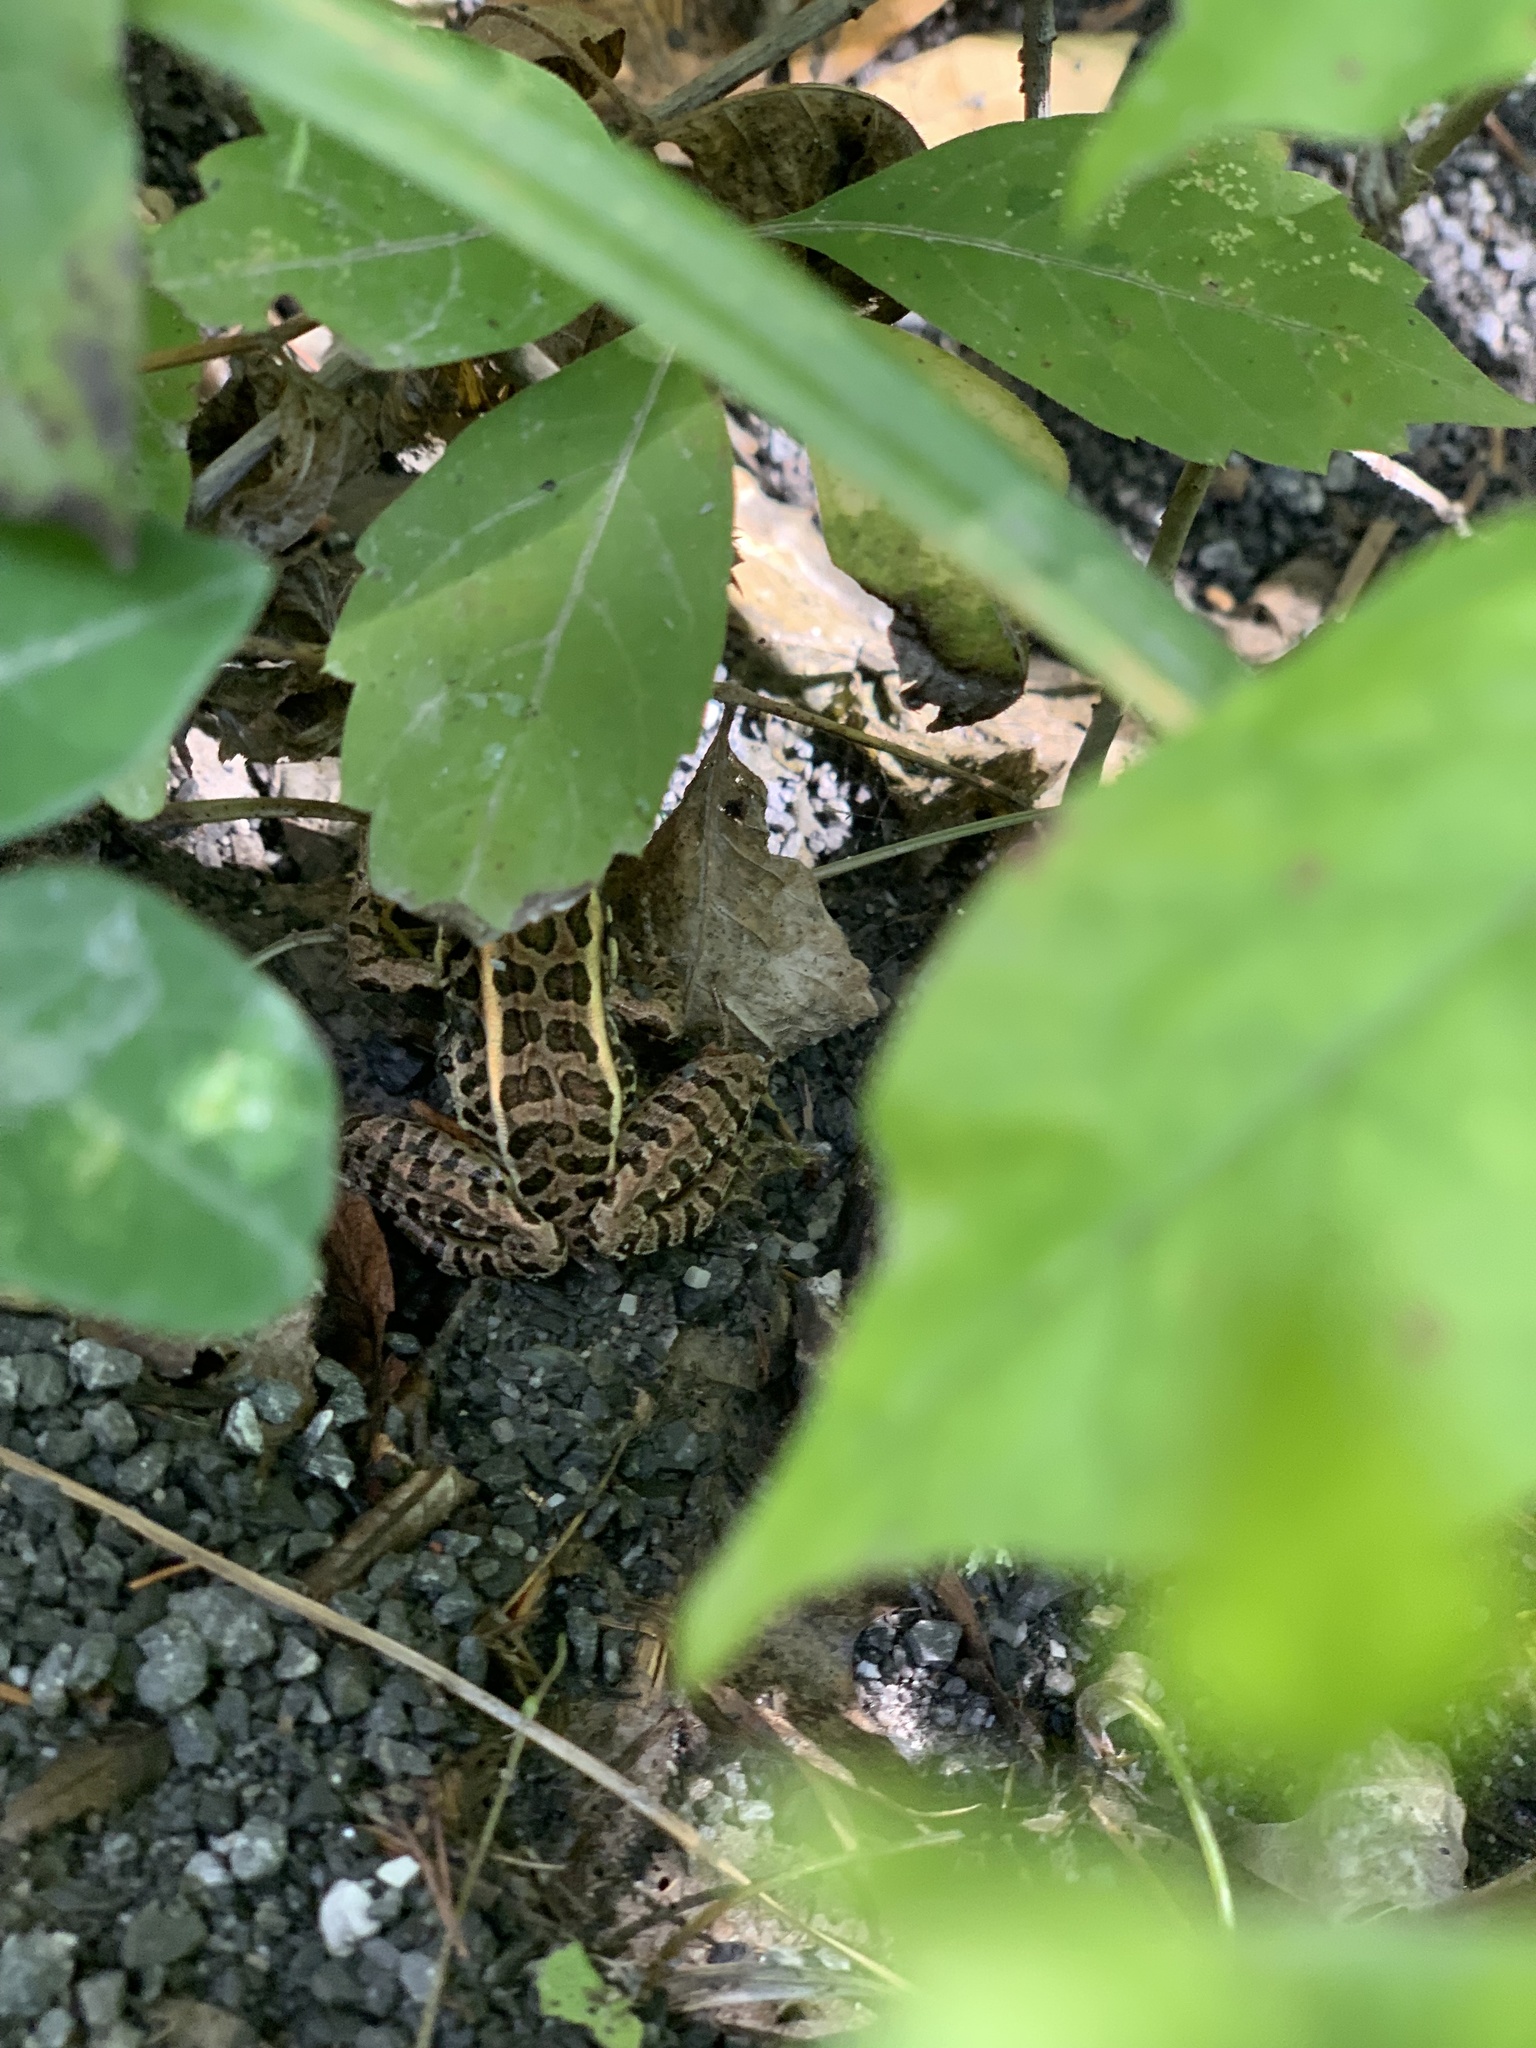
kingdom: Animalia
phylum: Chordata
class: Amphibia
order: Anura
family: Ranidae
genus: Lithobates
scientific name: Lithobates palustris
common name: Pickerel frog
